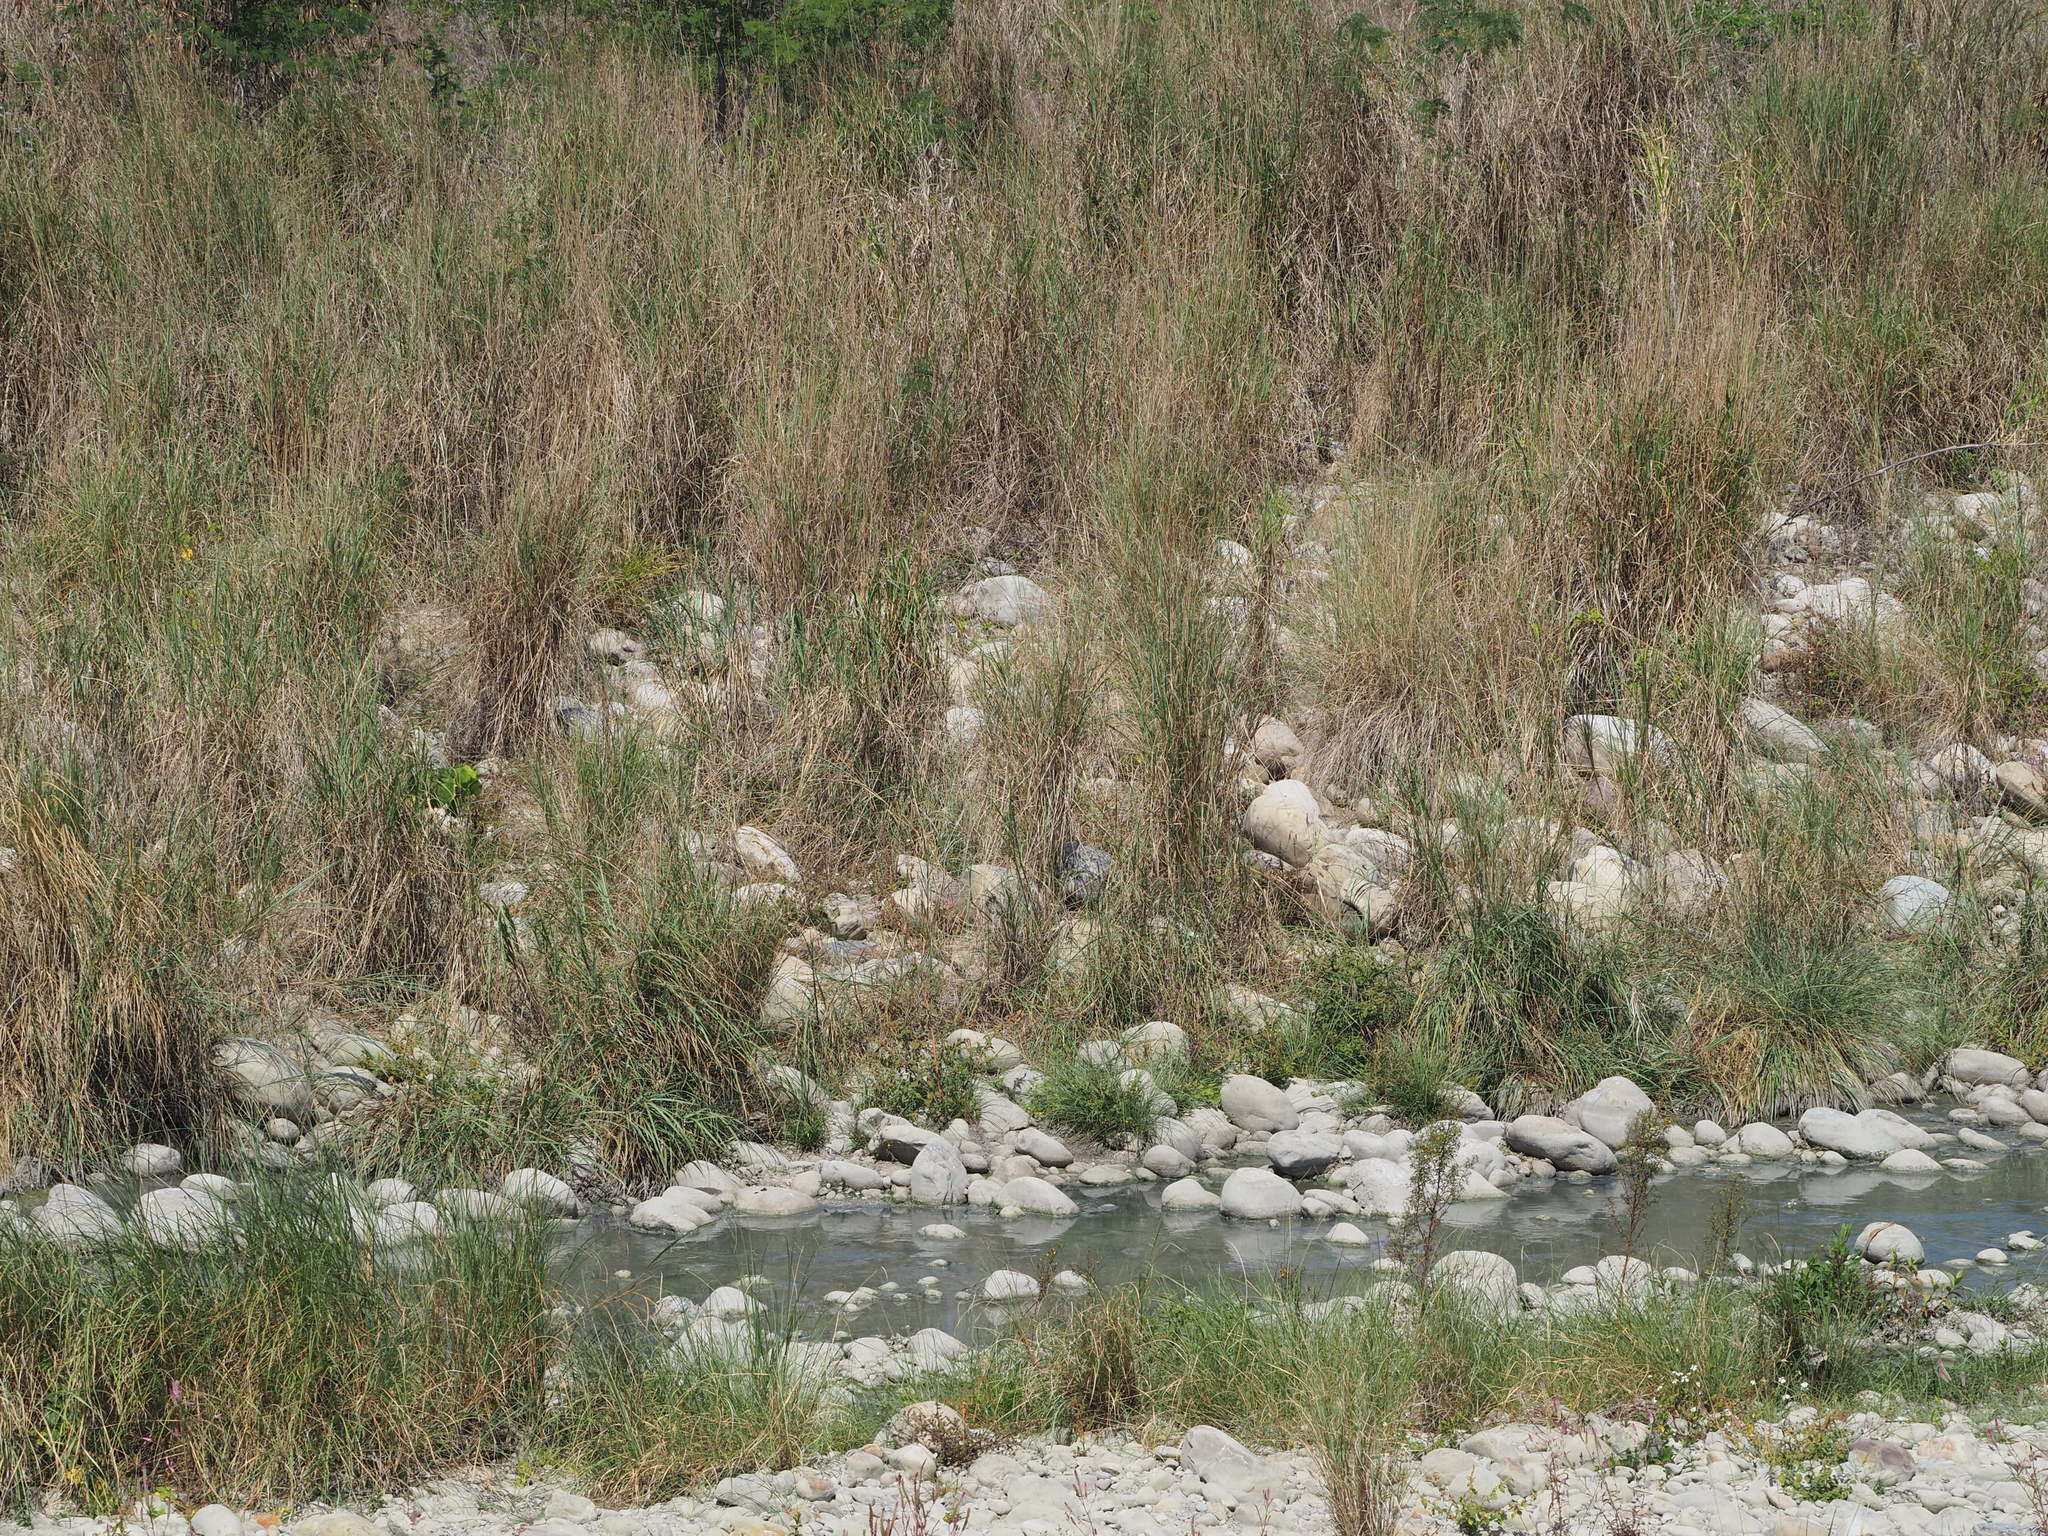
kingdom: Plantae
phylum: Tracheophyta
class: Liliopsida
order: Poales
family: Poaceae
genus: Saccharum
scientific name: Saccharum spontaneum
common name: Wild sugarcane
